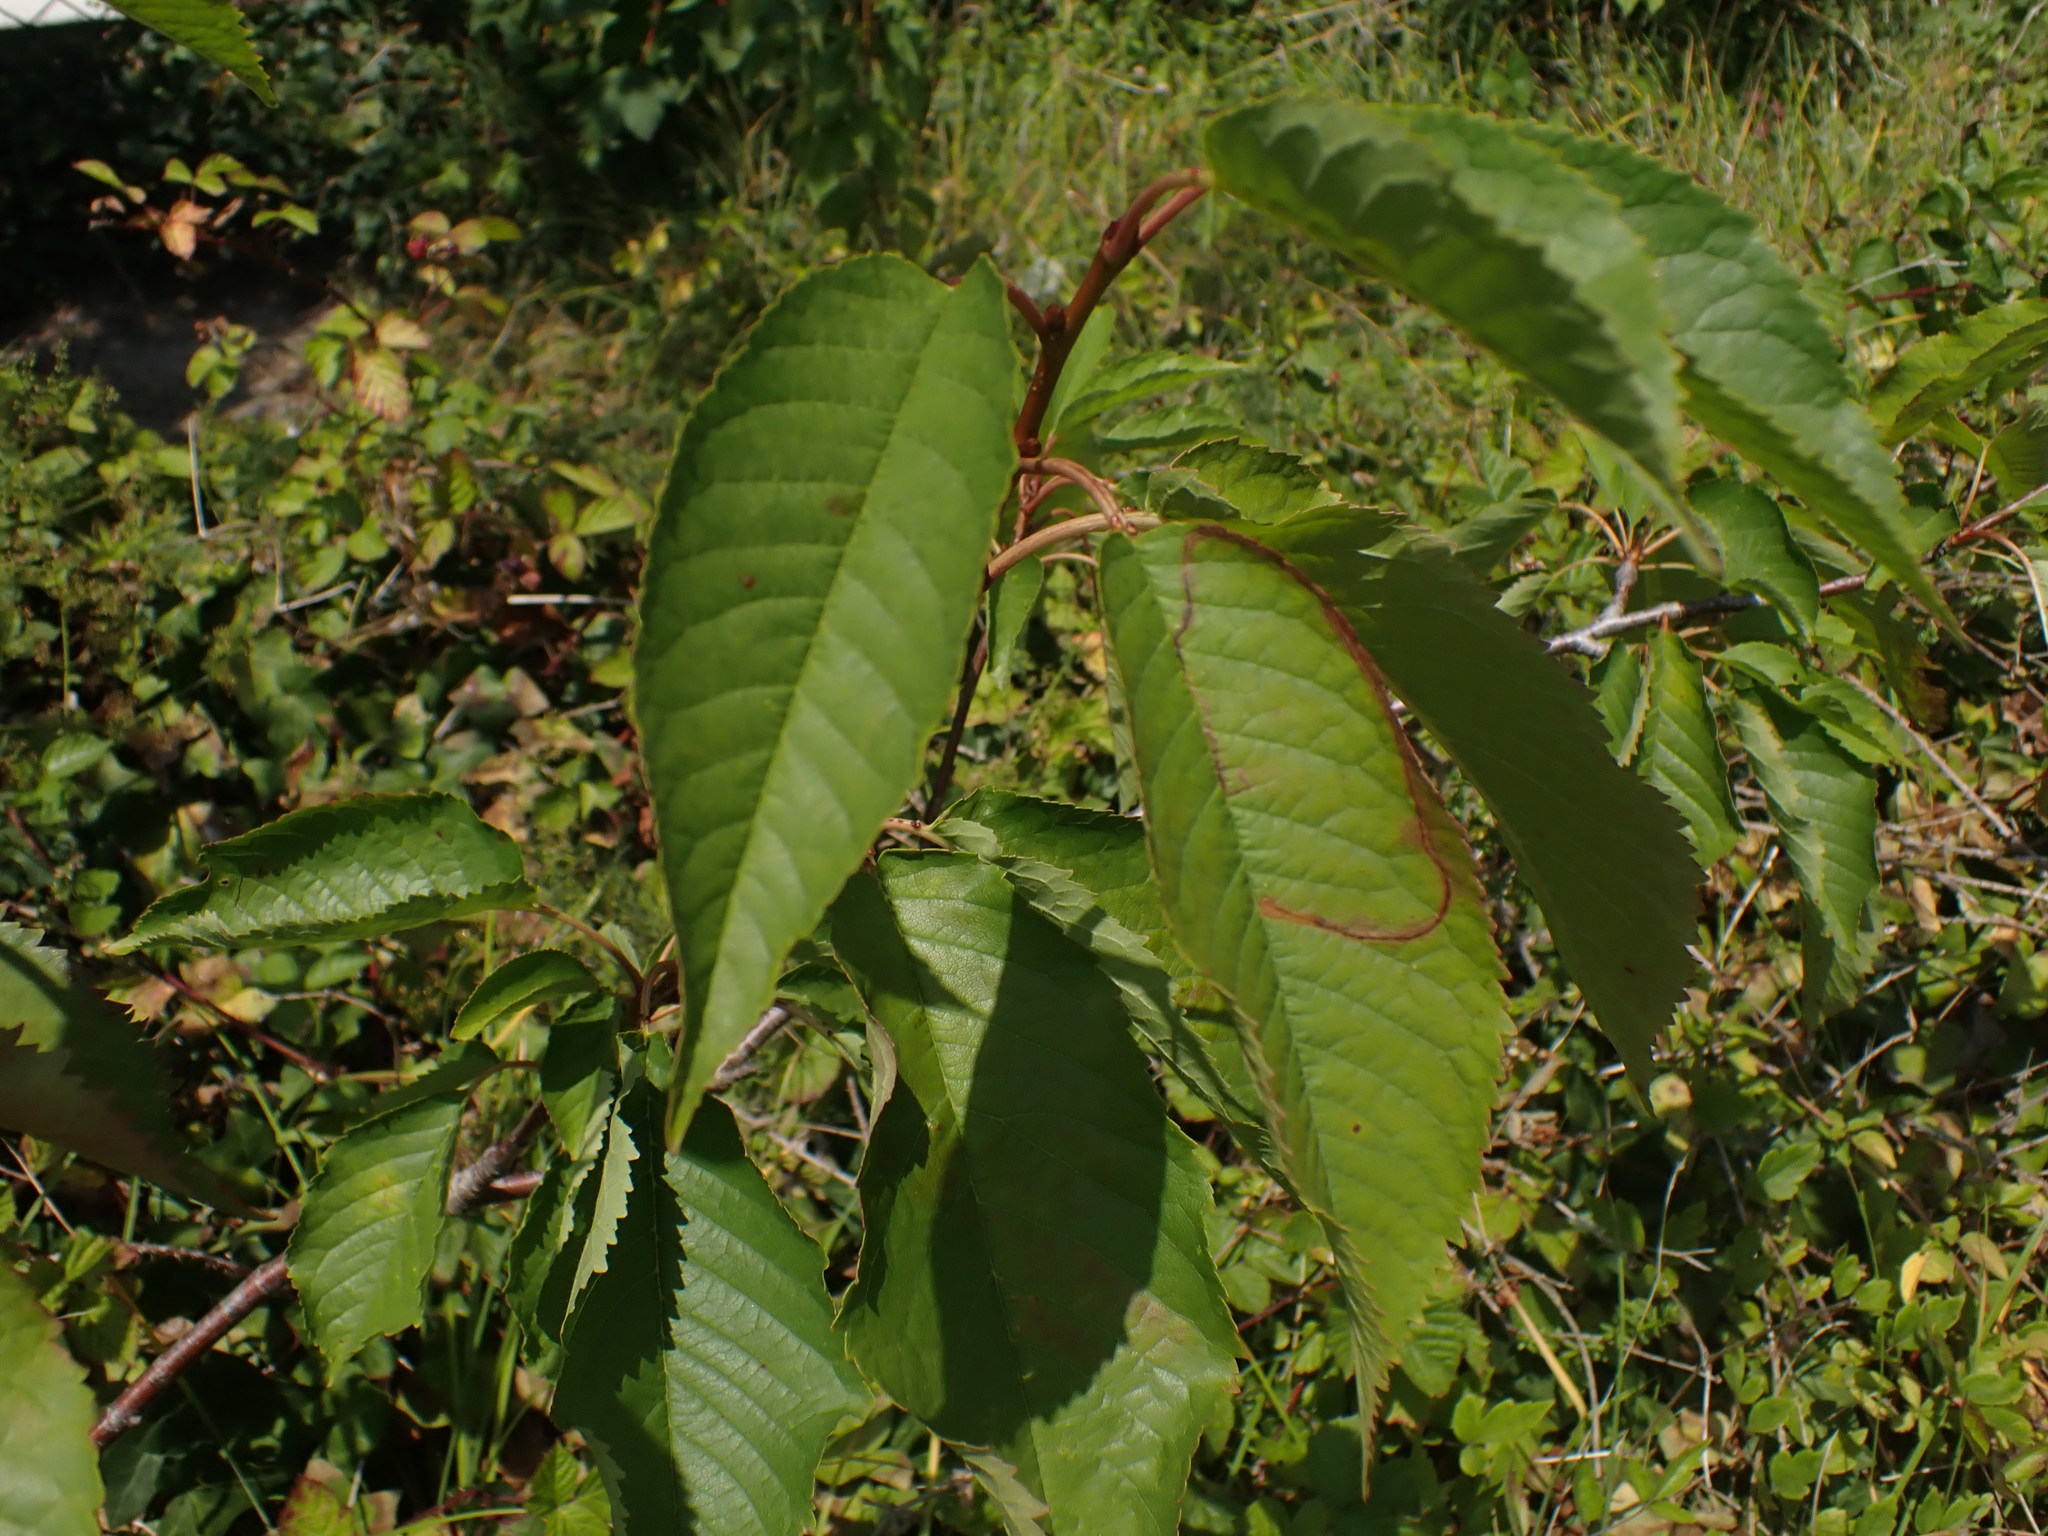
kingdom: Plantae
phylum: Tracheophyta
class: Magnoliopsida
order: Rosales
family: Rosaceae
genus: Prunus
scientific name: Prunus avium
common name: Sweet cherry
